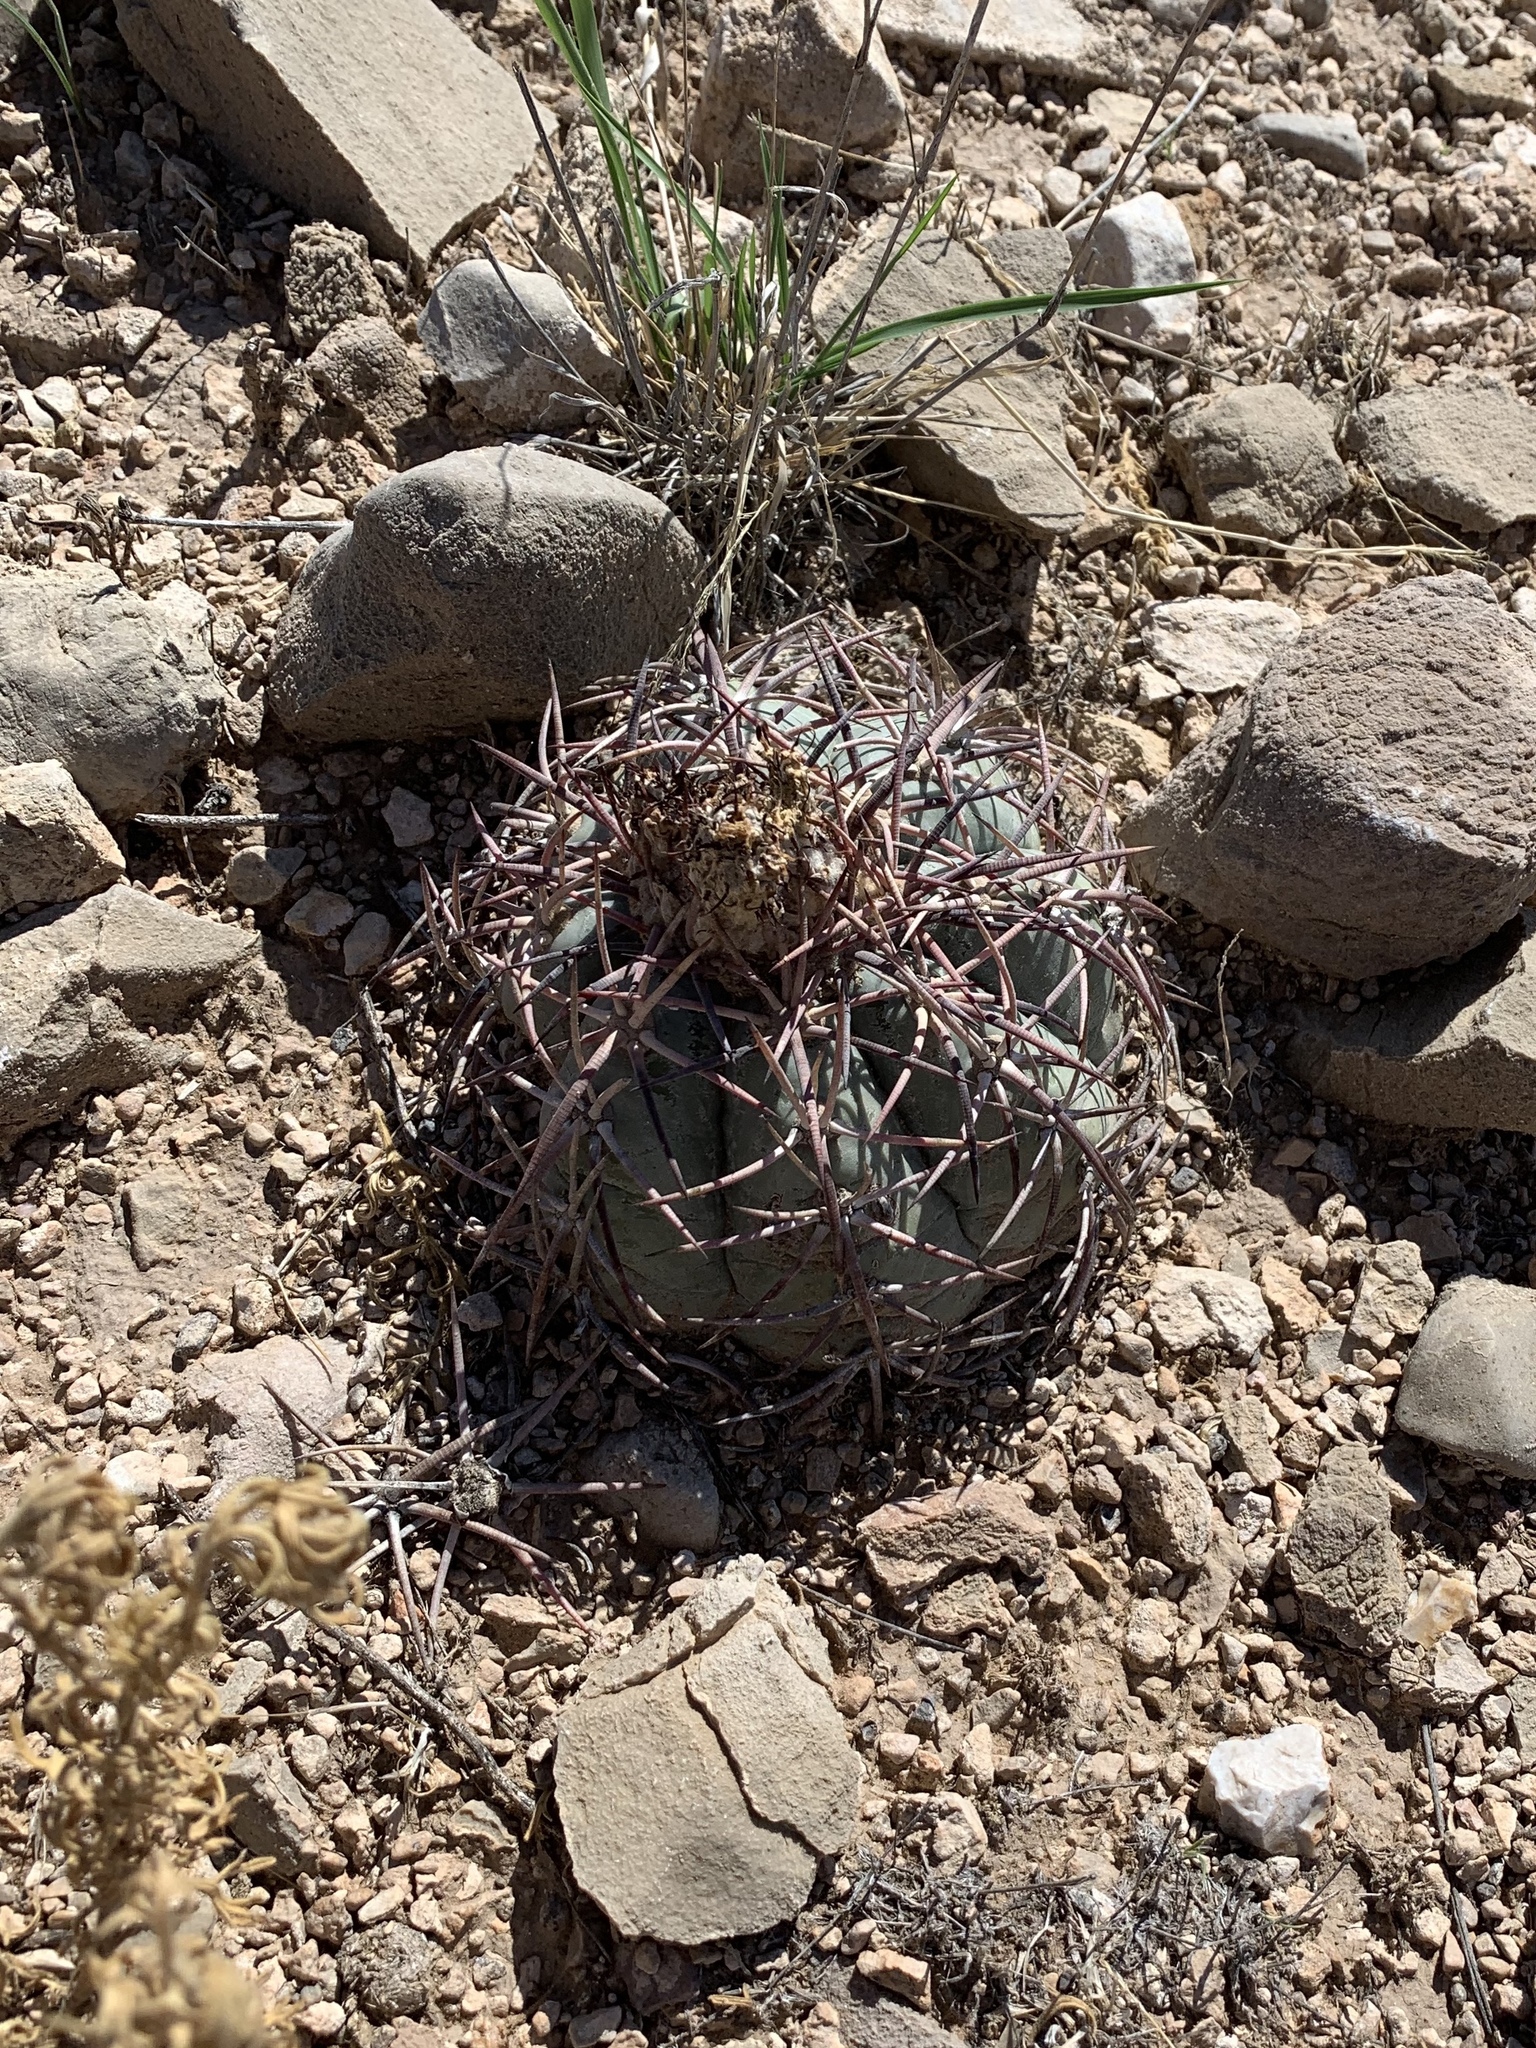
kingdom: Plantae
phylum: Tracheophyta
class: Magnoliopsida
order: Caryophyllales
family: Cactaceae
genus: Echinocactus
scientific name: Echinocactus horizonthalonius
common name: Devilshead
